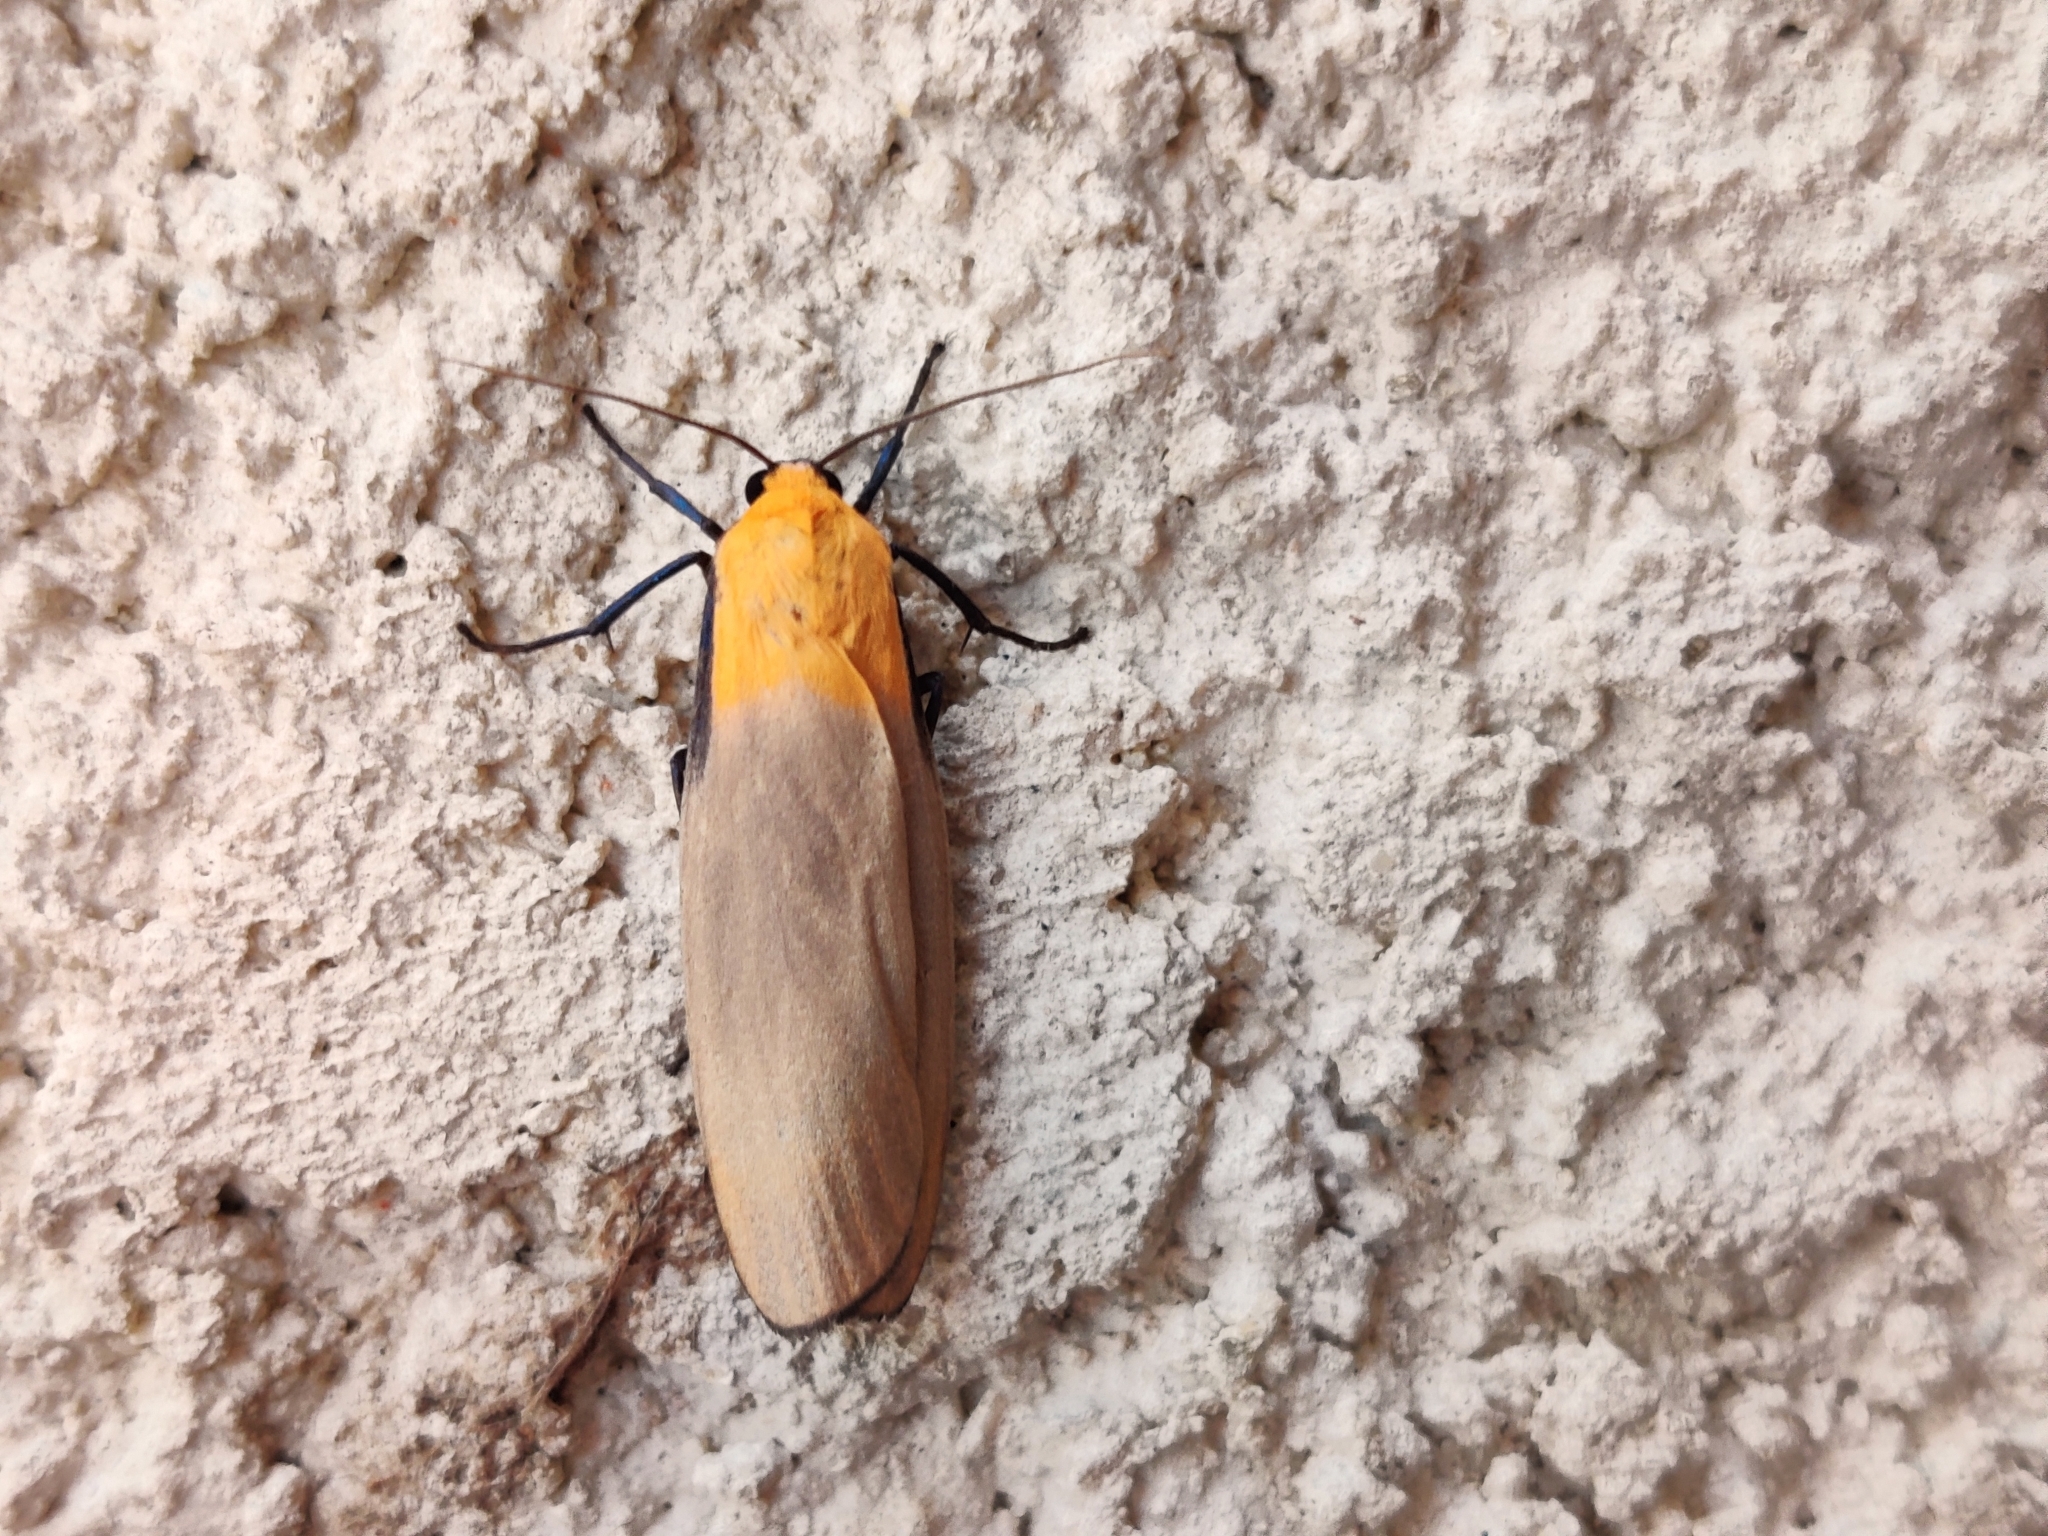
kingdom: Animalia
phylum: Arthropoda
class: Insecta
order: Lepidoptera
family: Erebidae
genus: Lithosia
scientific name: Lithosia quadra
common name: Four-spotted footman
